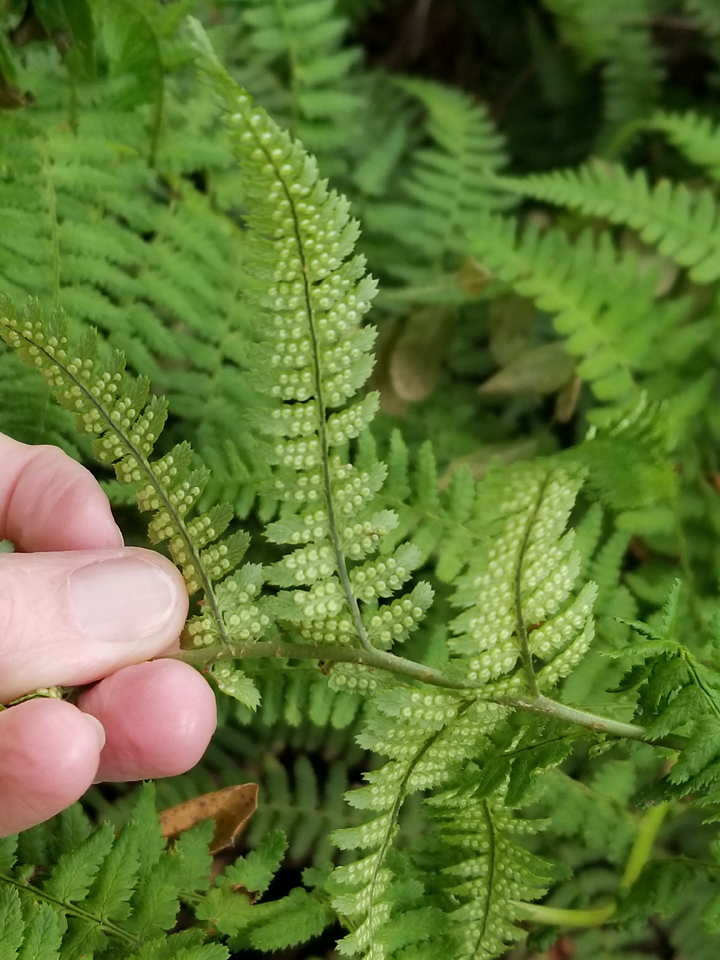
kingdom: Plantae
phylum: Tracheophyta
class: Polypodiopsida
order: Polypodiales
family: Dryopteridaceae
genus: Dryopteris
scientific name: Dryopteris arguta
